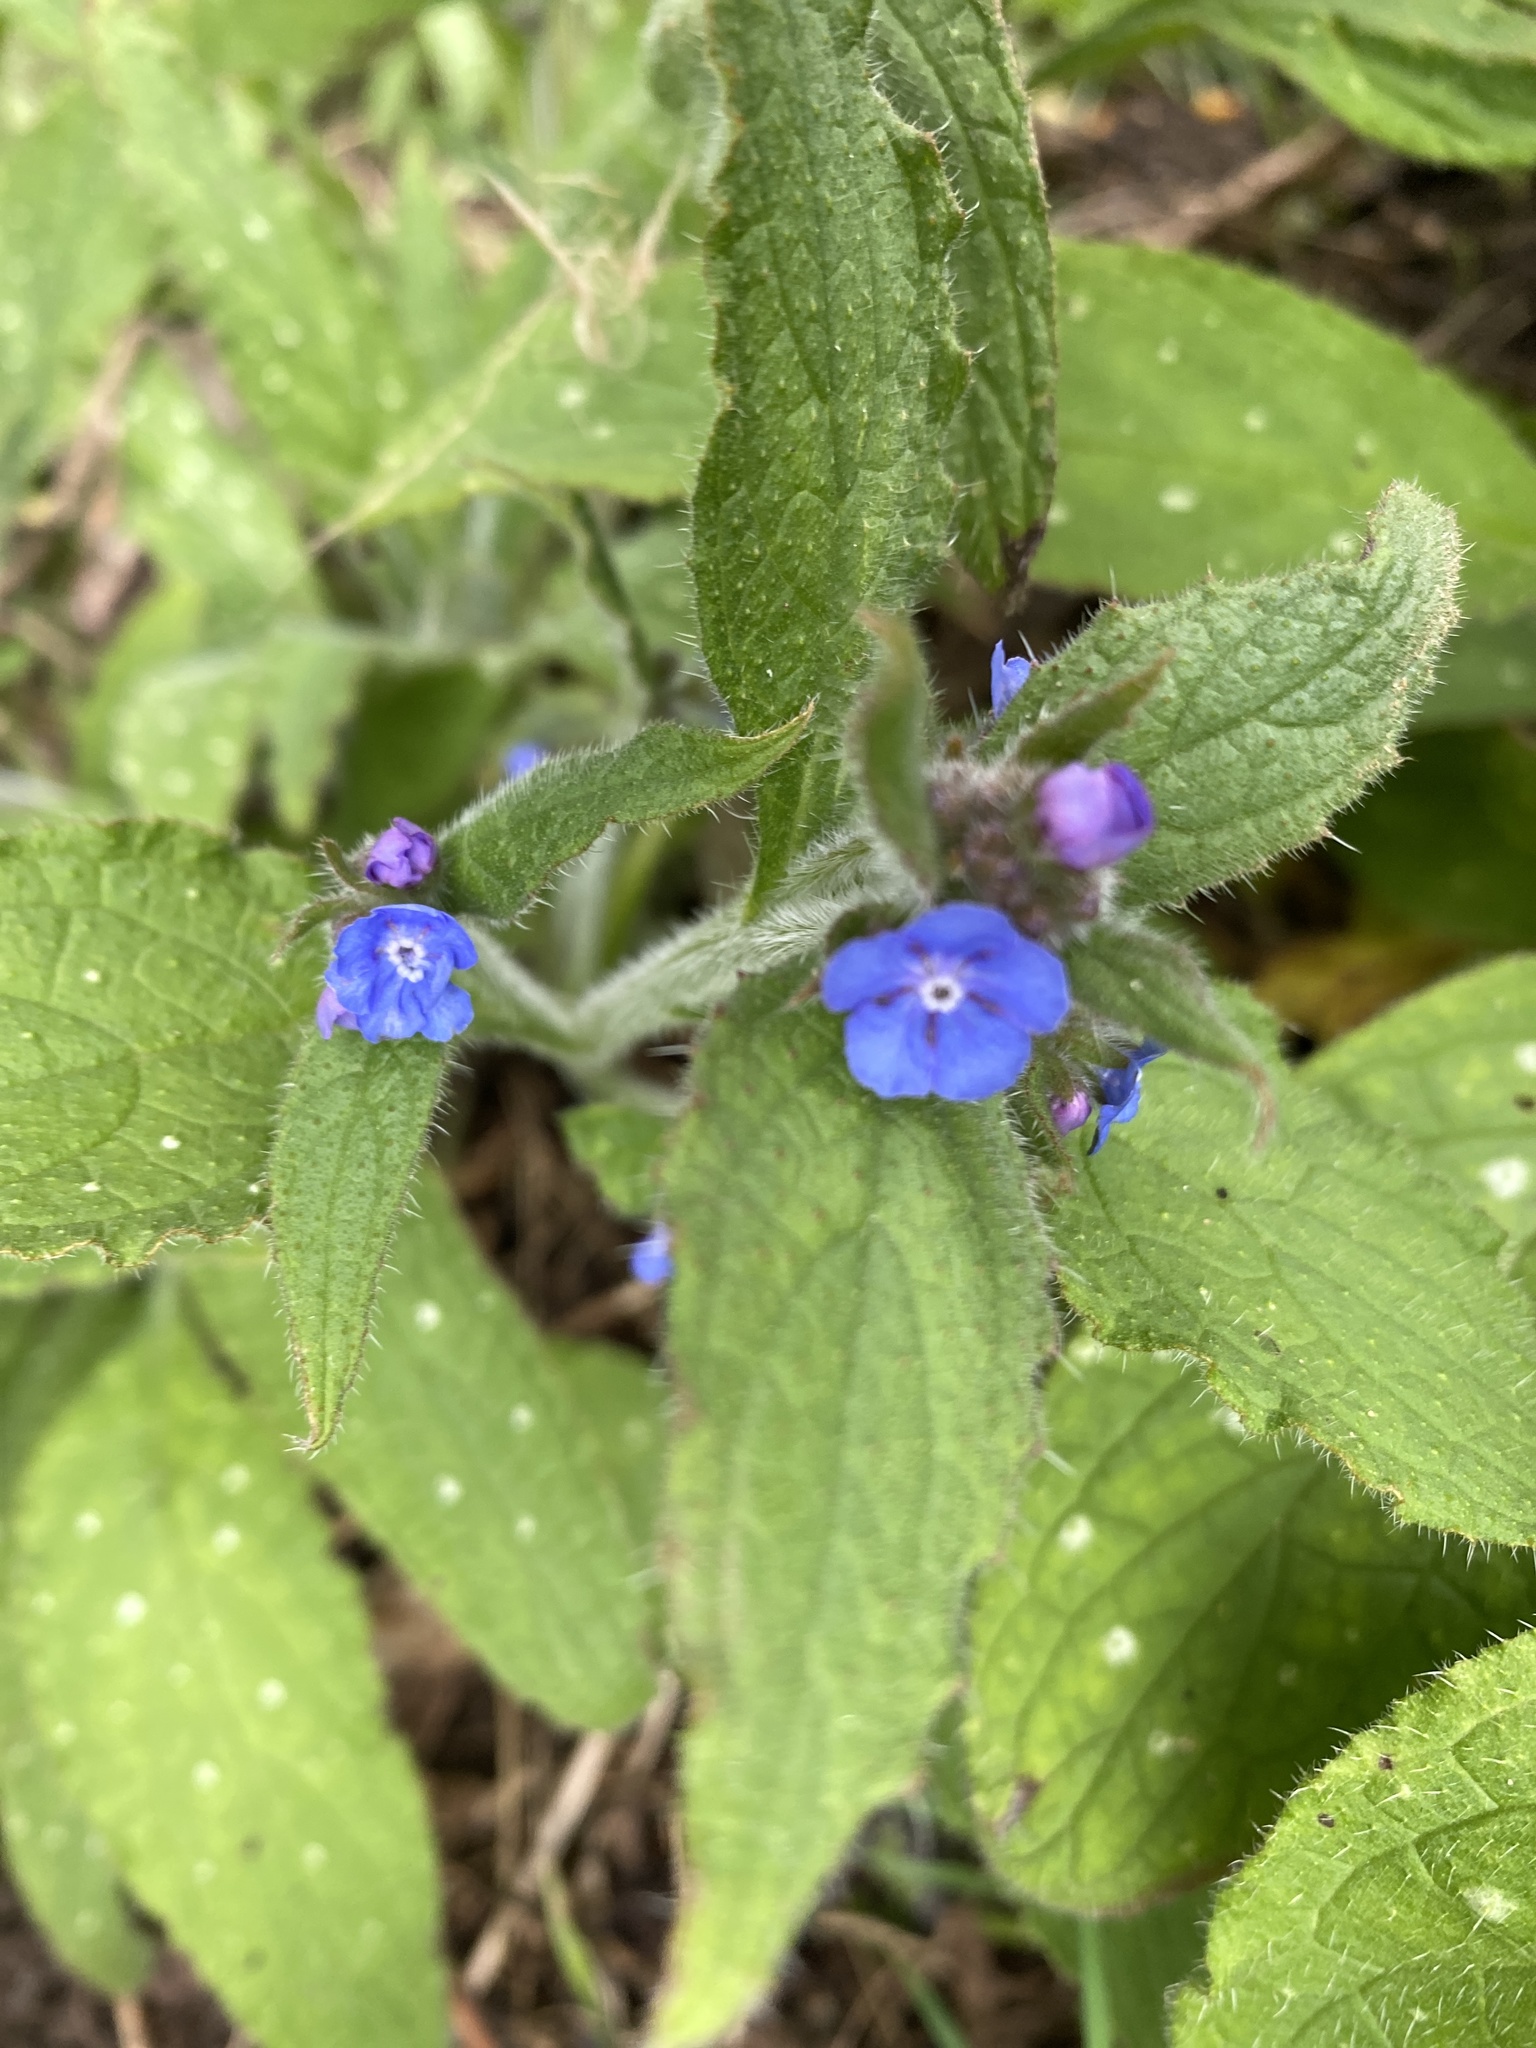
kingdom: Plantae
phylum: Tracheophyta
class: Magnoliopsida
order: Boraginales
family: Boraginaceae
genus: Pentaglottis
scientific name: Pentaglottis sempervirens
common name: Green alkanet
